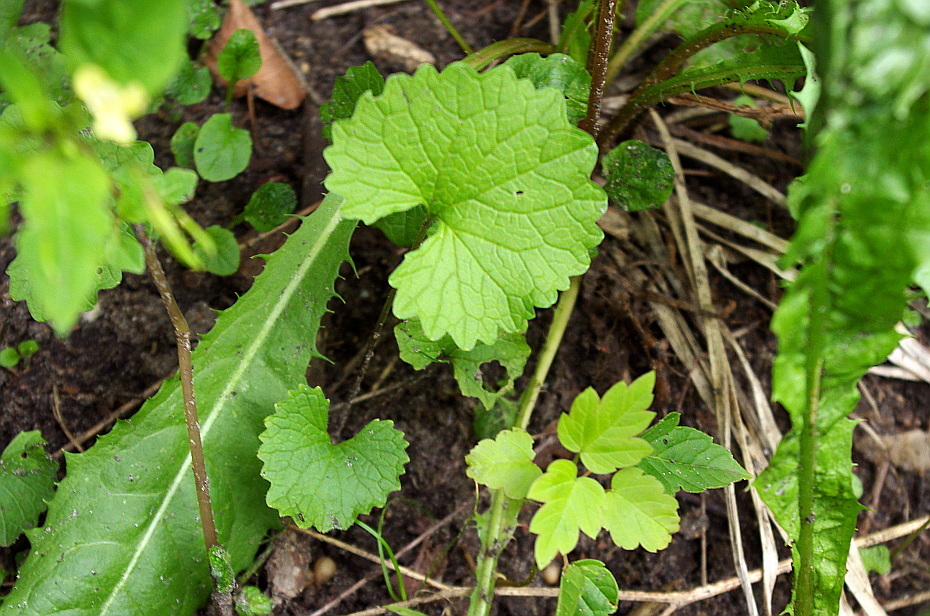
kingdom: Plantae
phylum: Tracheophyta
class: Magnoliopsida
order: Brassicales
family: Brassicaceae
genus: Alliaria
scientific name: Alliaria petiolata
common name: Garlic mustard
